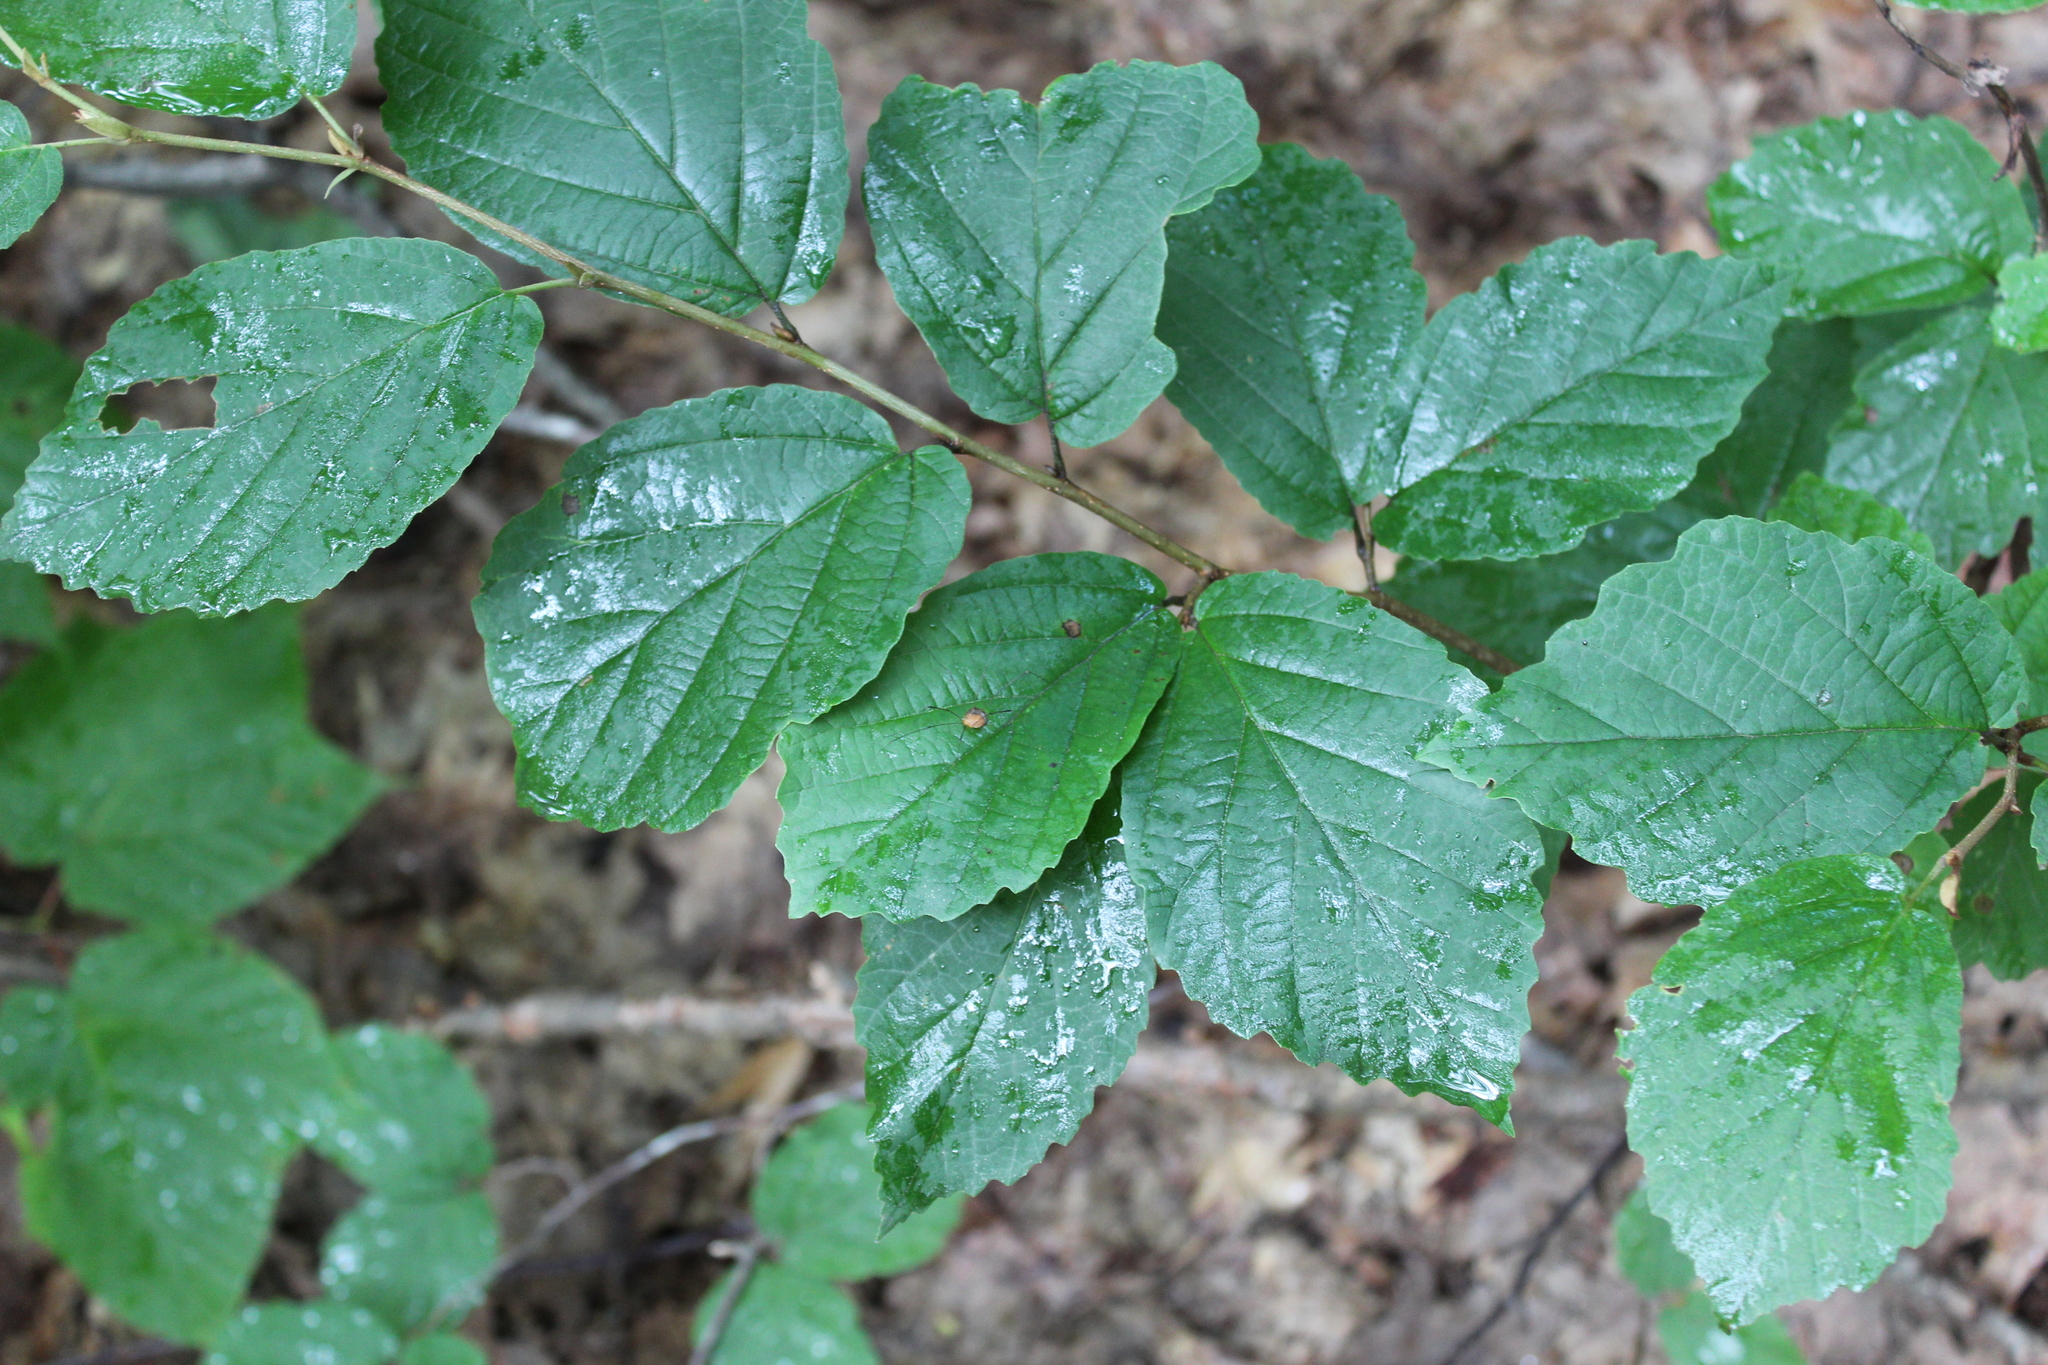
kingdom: Plantae
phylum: Tracheophyta
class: Magnoliopsida
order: Saxifragales
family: Hamamelidaceae
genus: Hamamelis
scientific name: Hamamelis virginiana
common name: Witch-hazel
